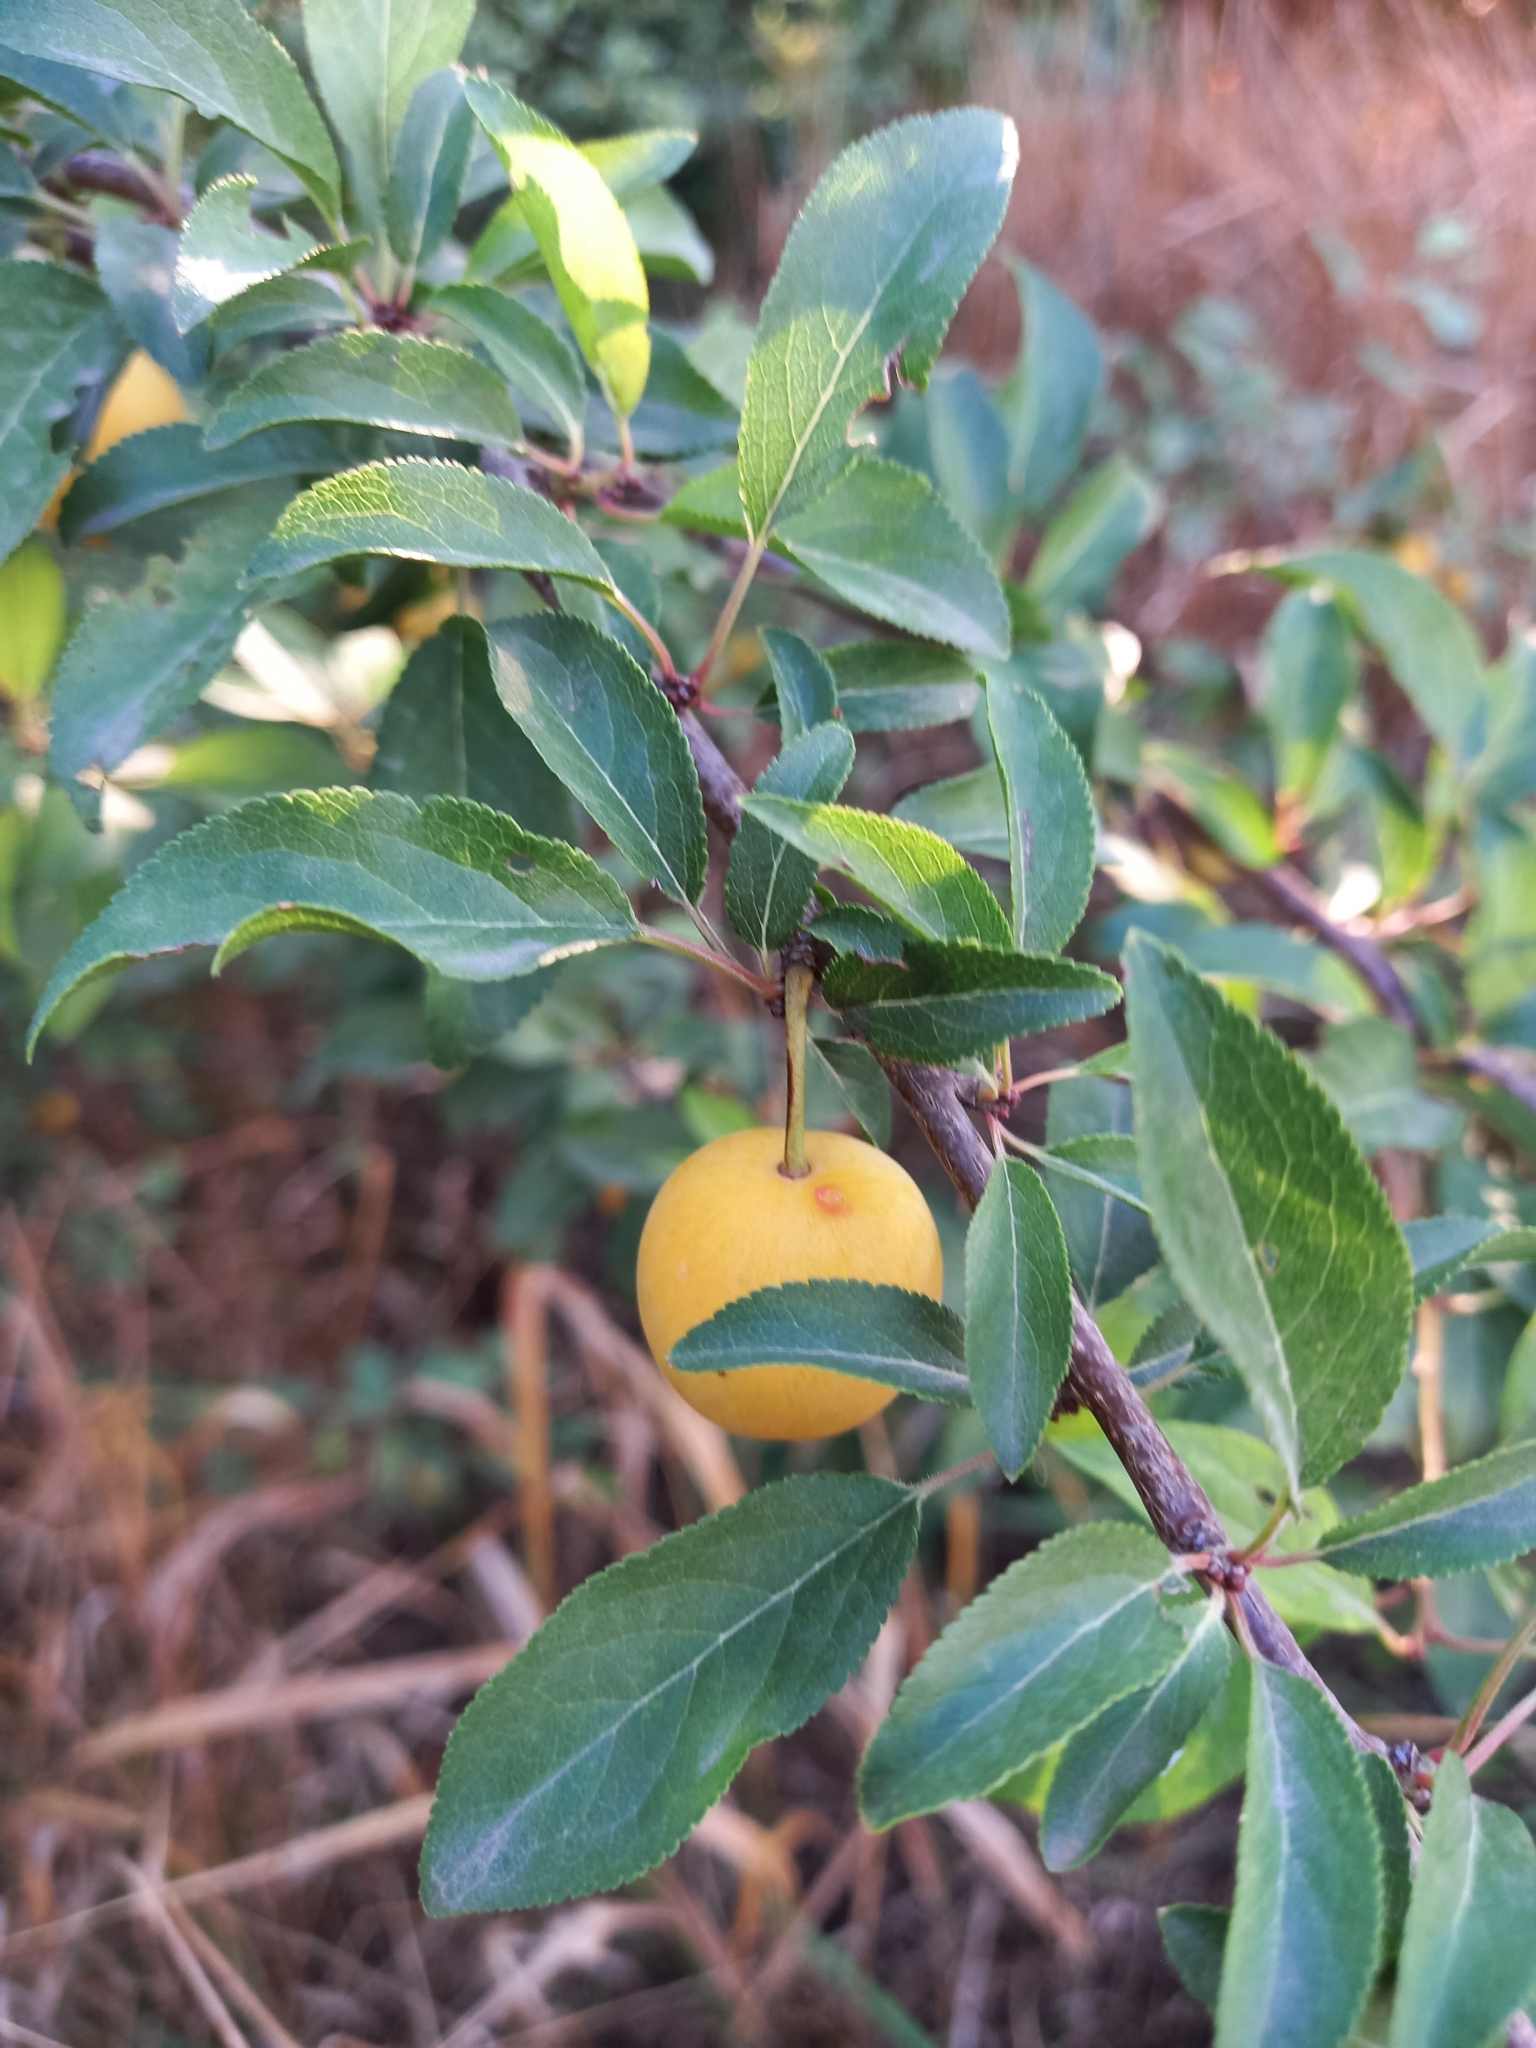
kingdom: Plantae
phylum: Tracheophyta
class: Magnoliopsida
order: Rosales
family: Rosaceae
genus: Prunus
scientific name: Prunus cerasifera
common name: Cherry plum
